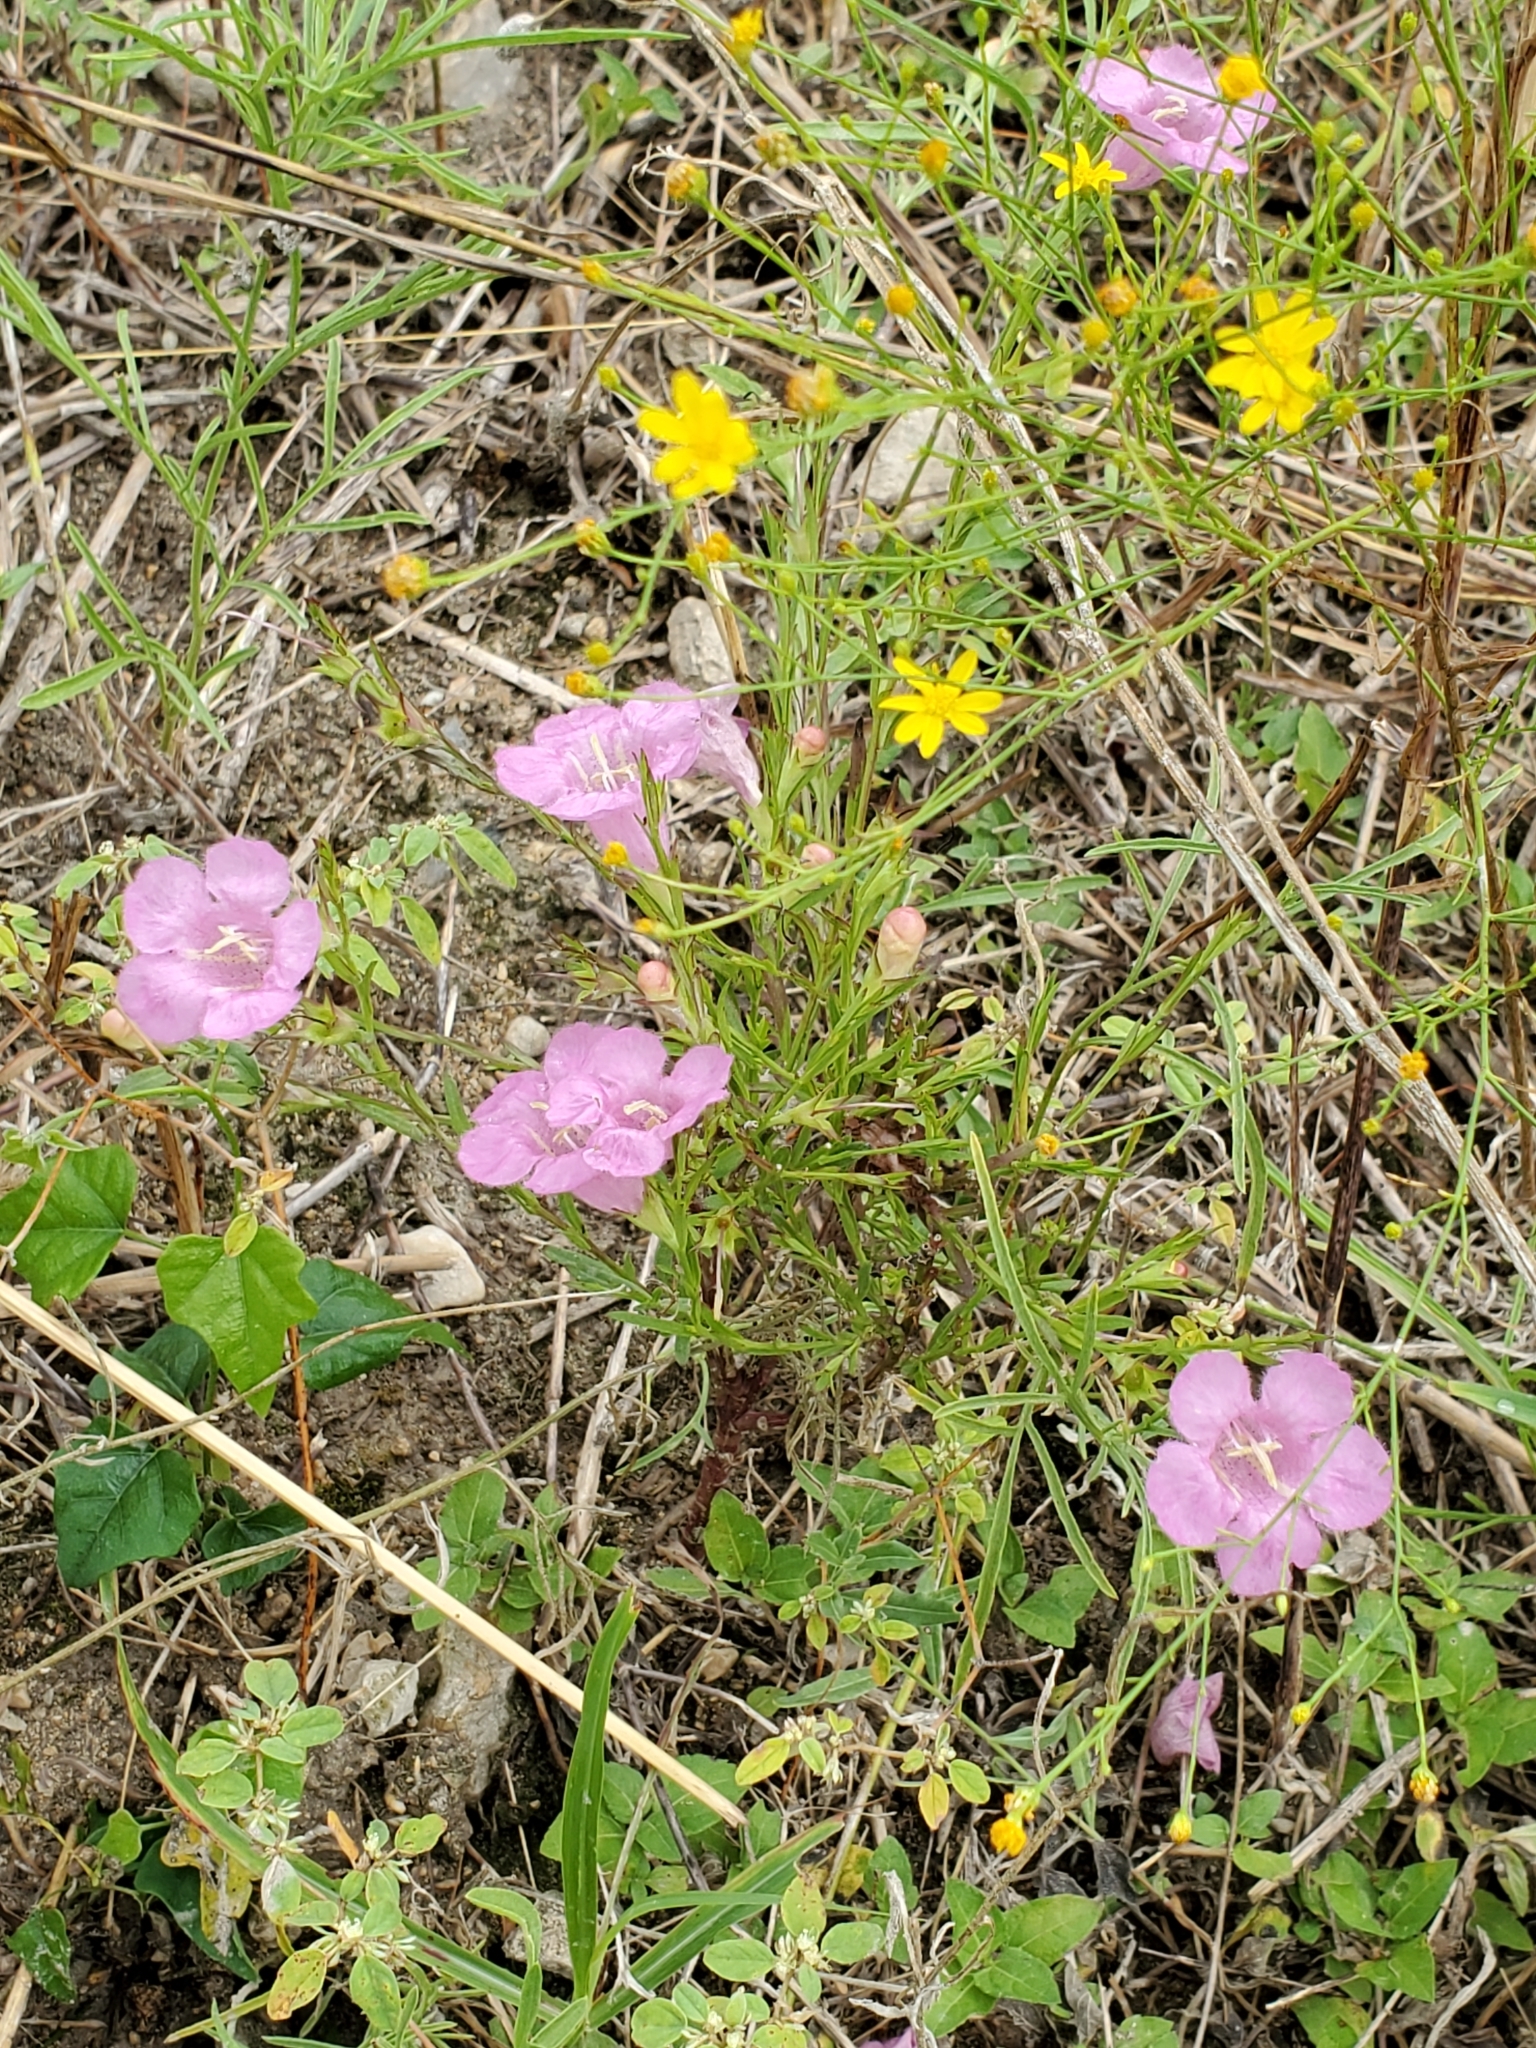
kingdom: Plantae
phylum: Tracheophyta
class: Magnoliopsida
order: Lamiales
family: Orobanchaceae
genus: Agalinis
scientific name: Agalinis heterophylla
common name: Prairie agalinis
